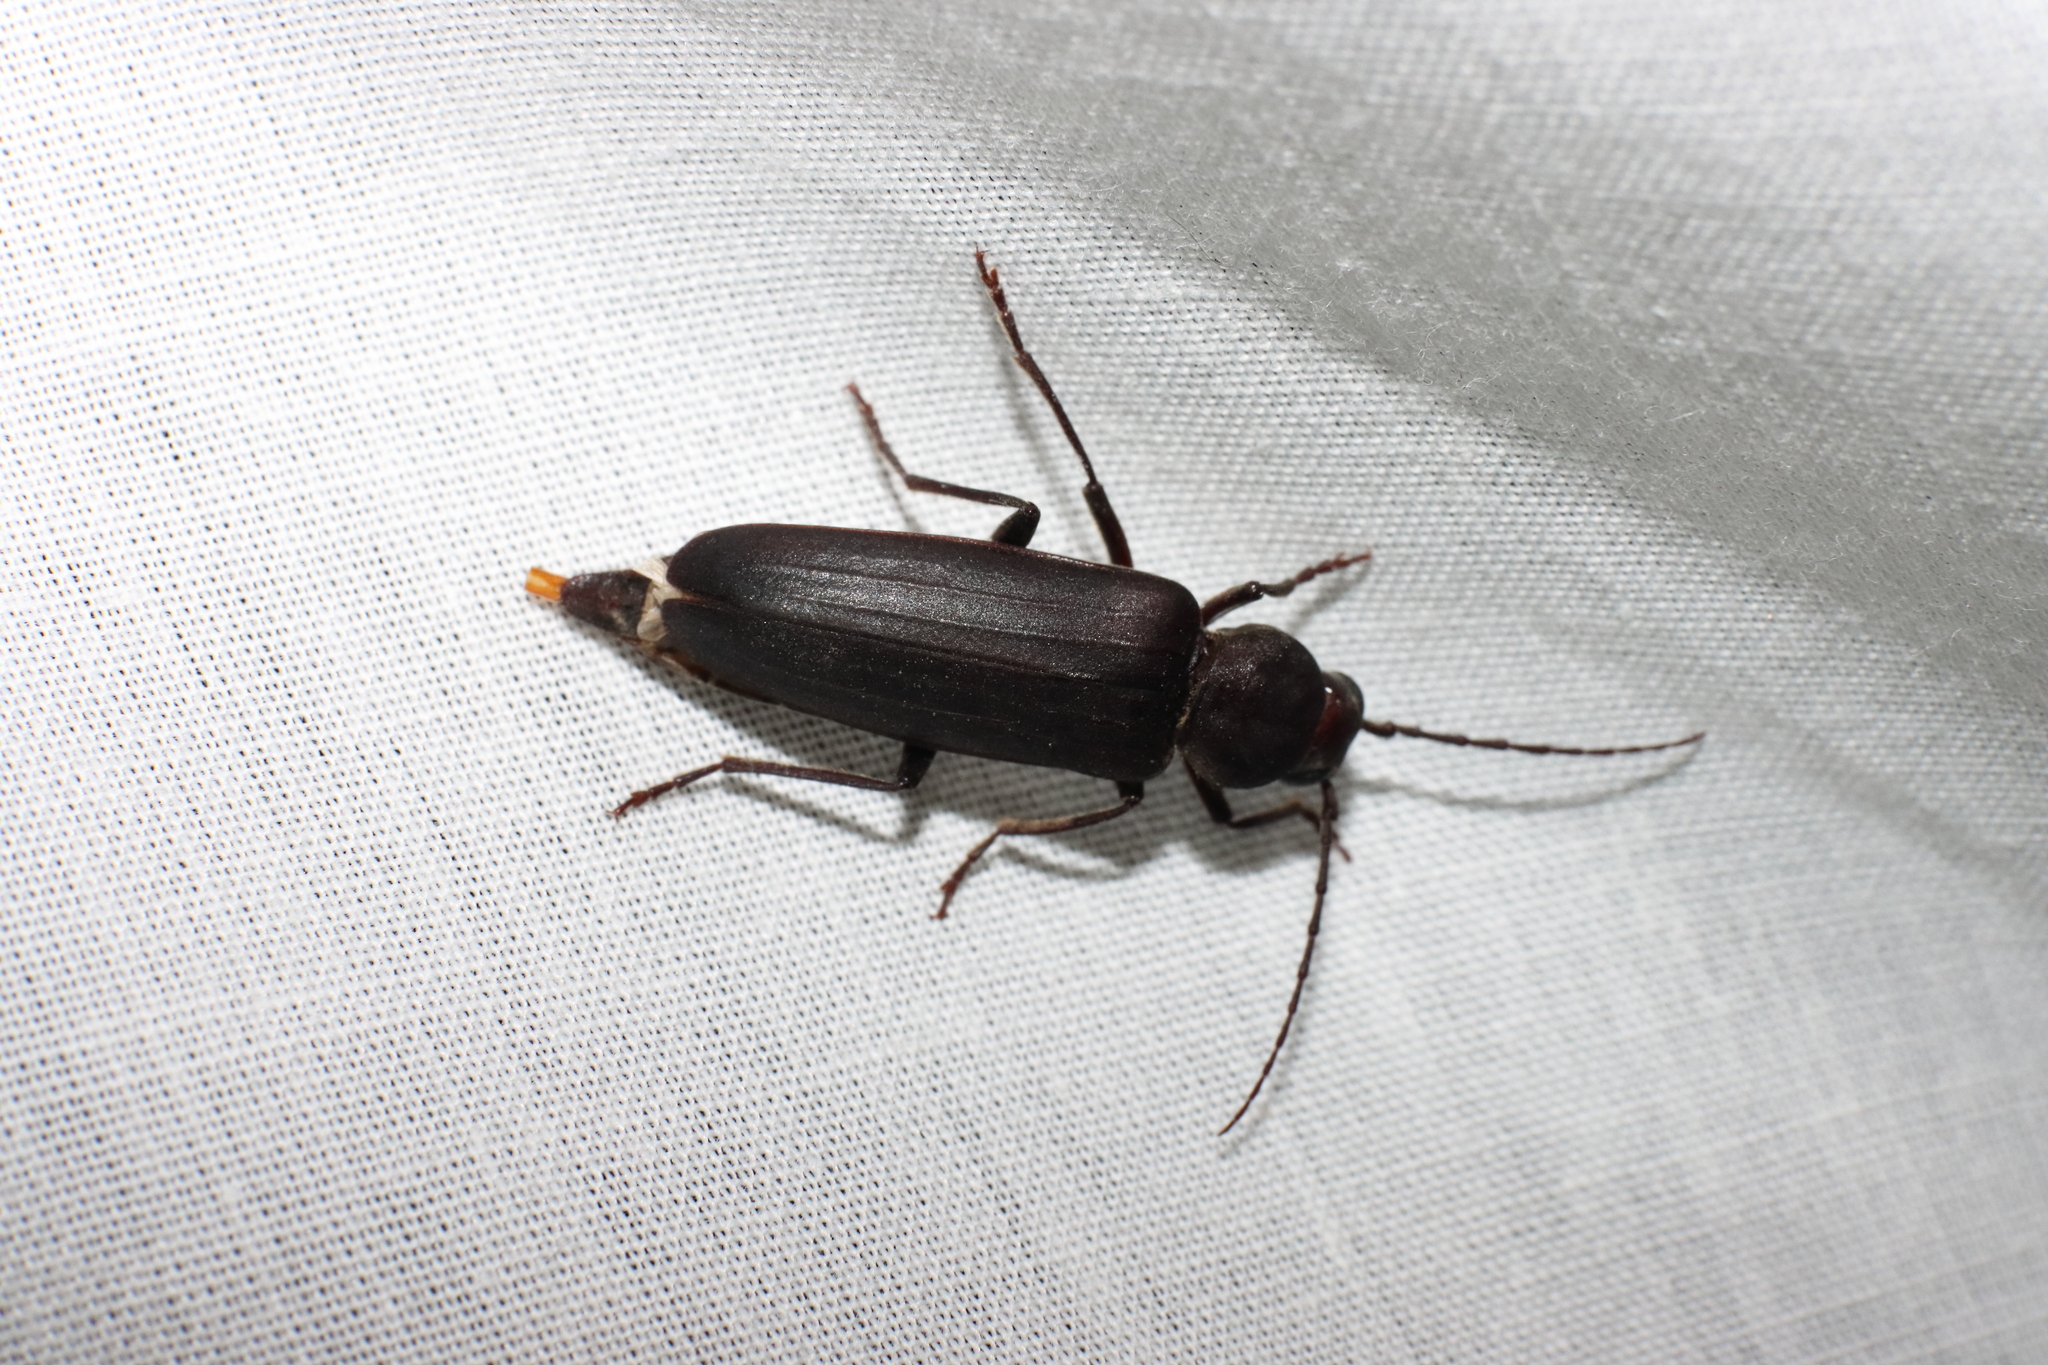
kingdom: Animalia
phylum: Arthropoda
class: Insecta
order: Coleoptera
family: Cerambycidae
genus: Arhopalus
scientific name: Arhopalus ferus
